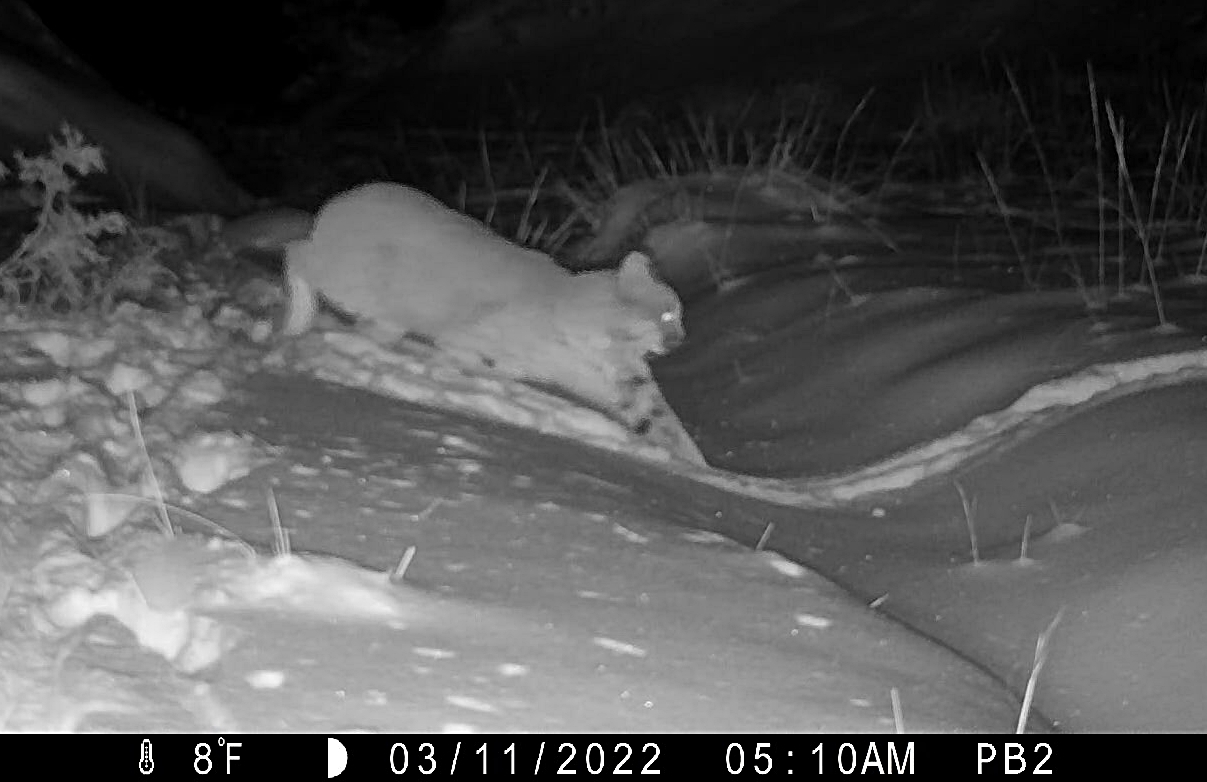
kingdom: Animalia
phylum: Chordata
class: Mammalia
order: Carnivora
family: Felidae
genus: Lynx
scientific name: Lynx rufus
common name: Bobcat
